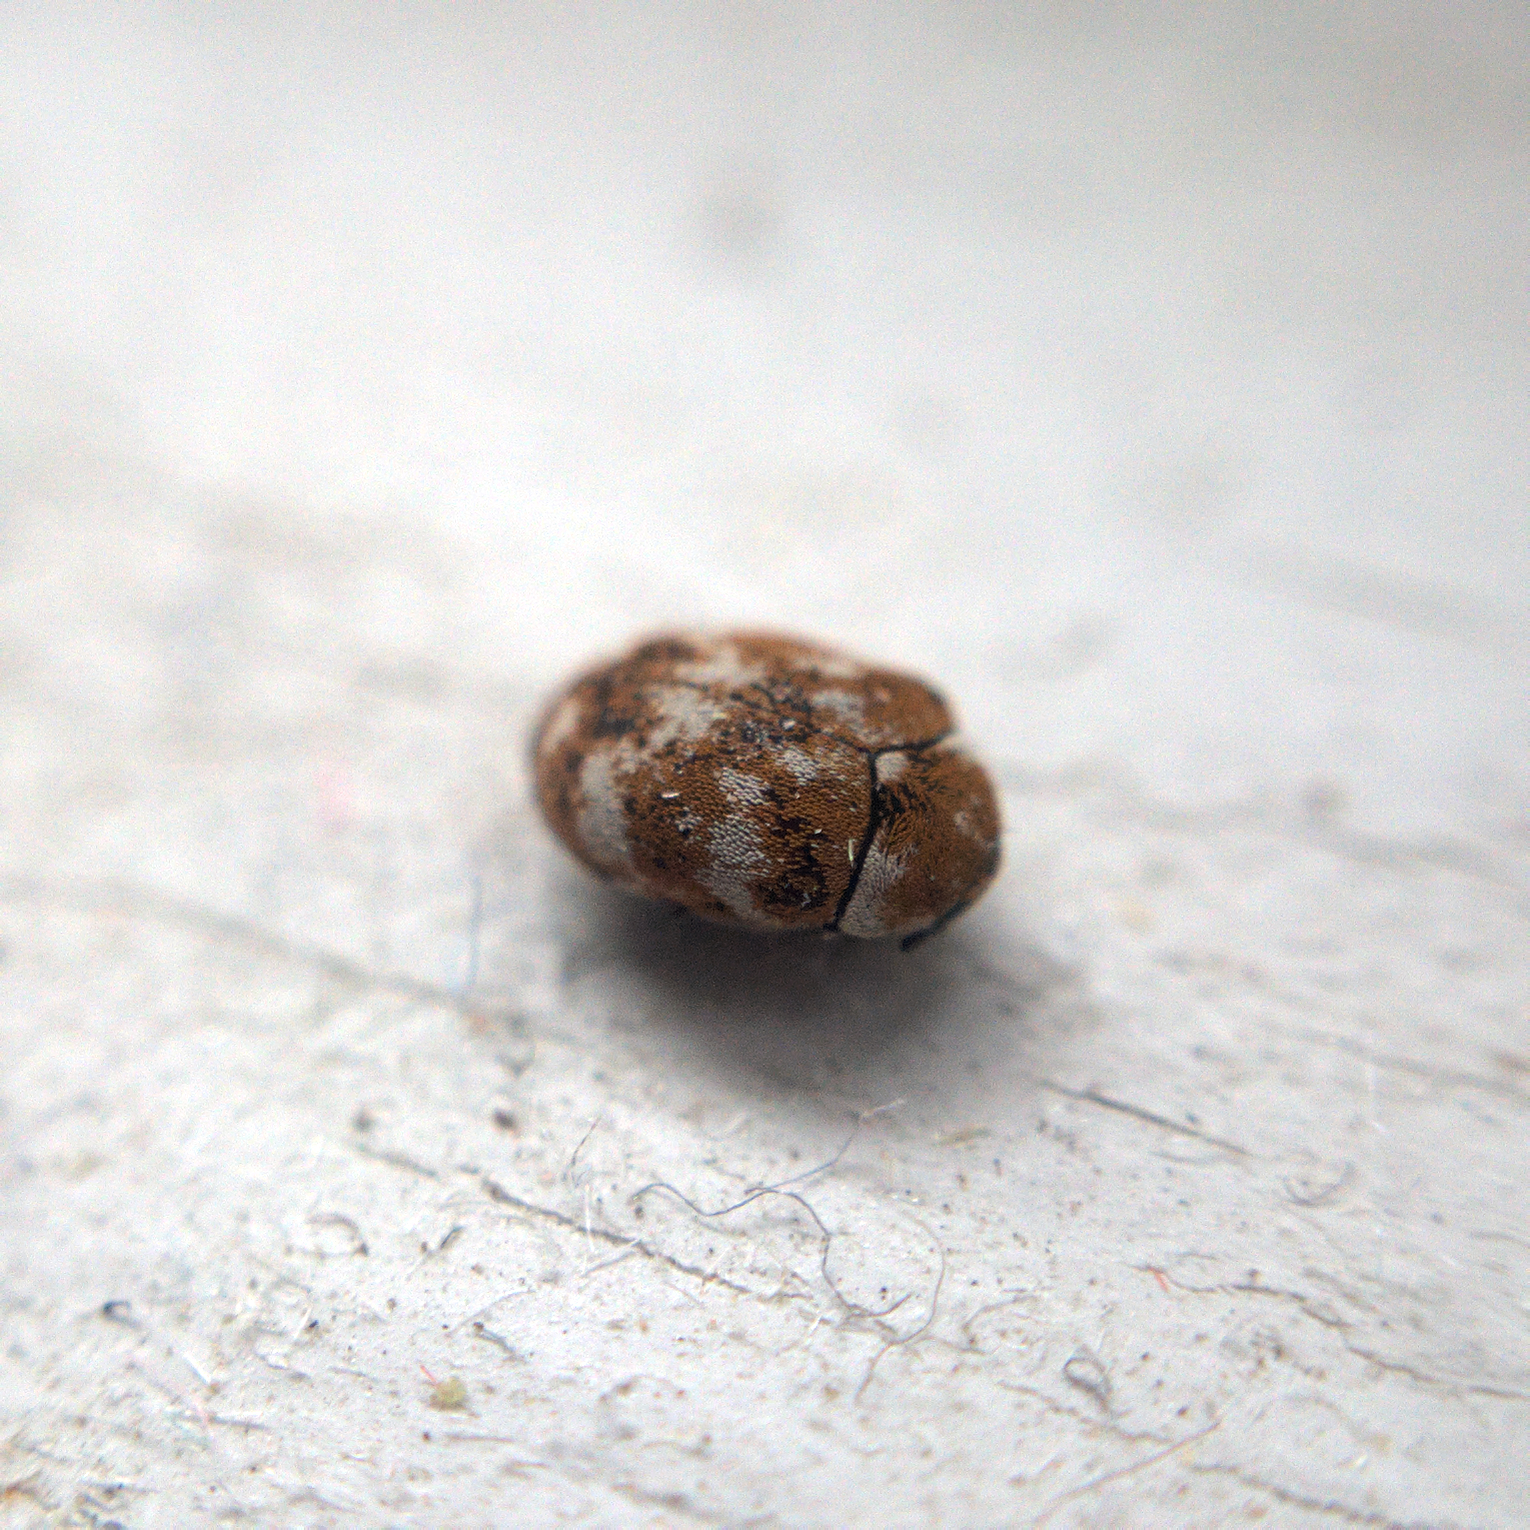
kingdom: Animalia
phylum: Arthropoda
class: Insecta
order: Coleoptera
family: Dermestidae
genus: Anthrenus
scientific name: Anthrenus verbasci
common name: Varied carpet beetle
